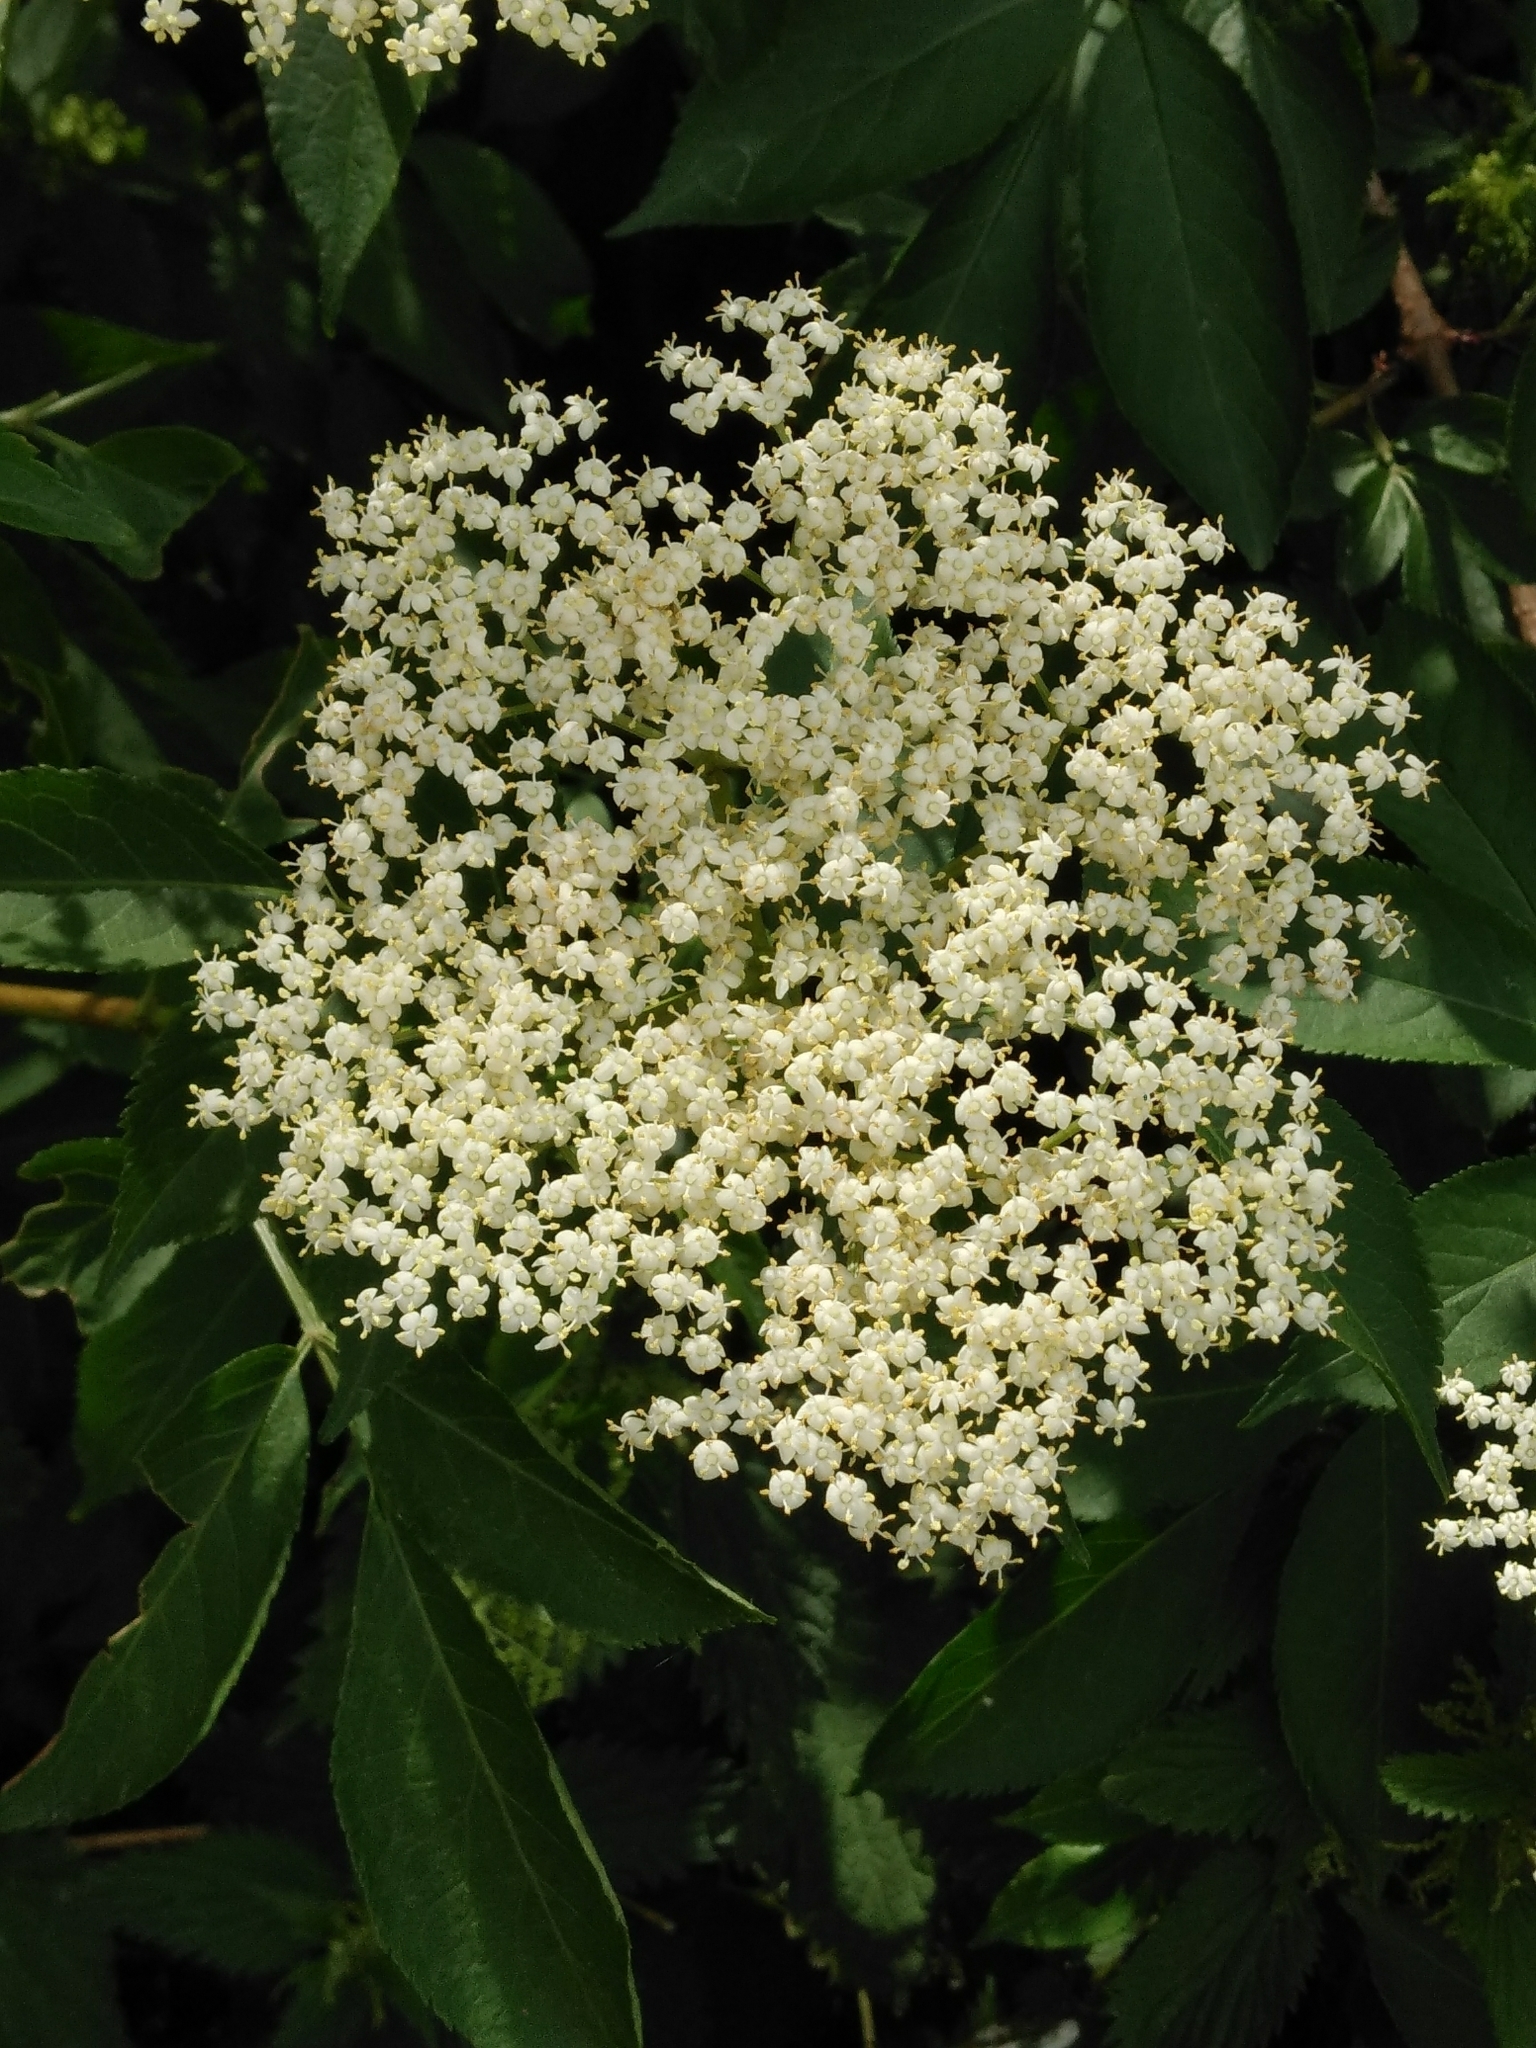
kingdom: Plantae
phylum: Tracheophyta
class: Magnoliopsida
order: Dipsacales
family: Viburnaceae
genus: Sambucus
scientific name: Sambucus nigra
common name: Elder
